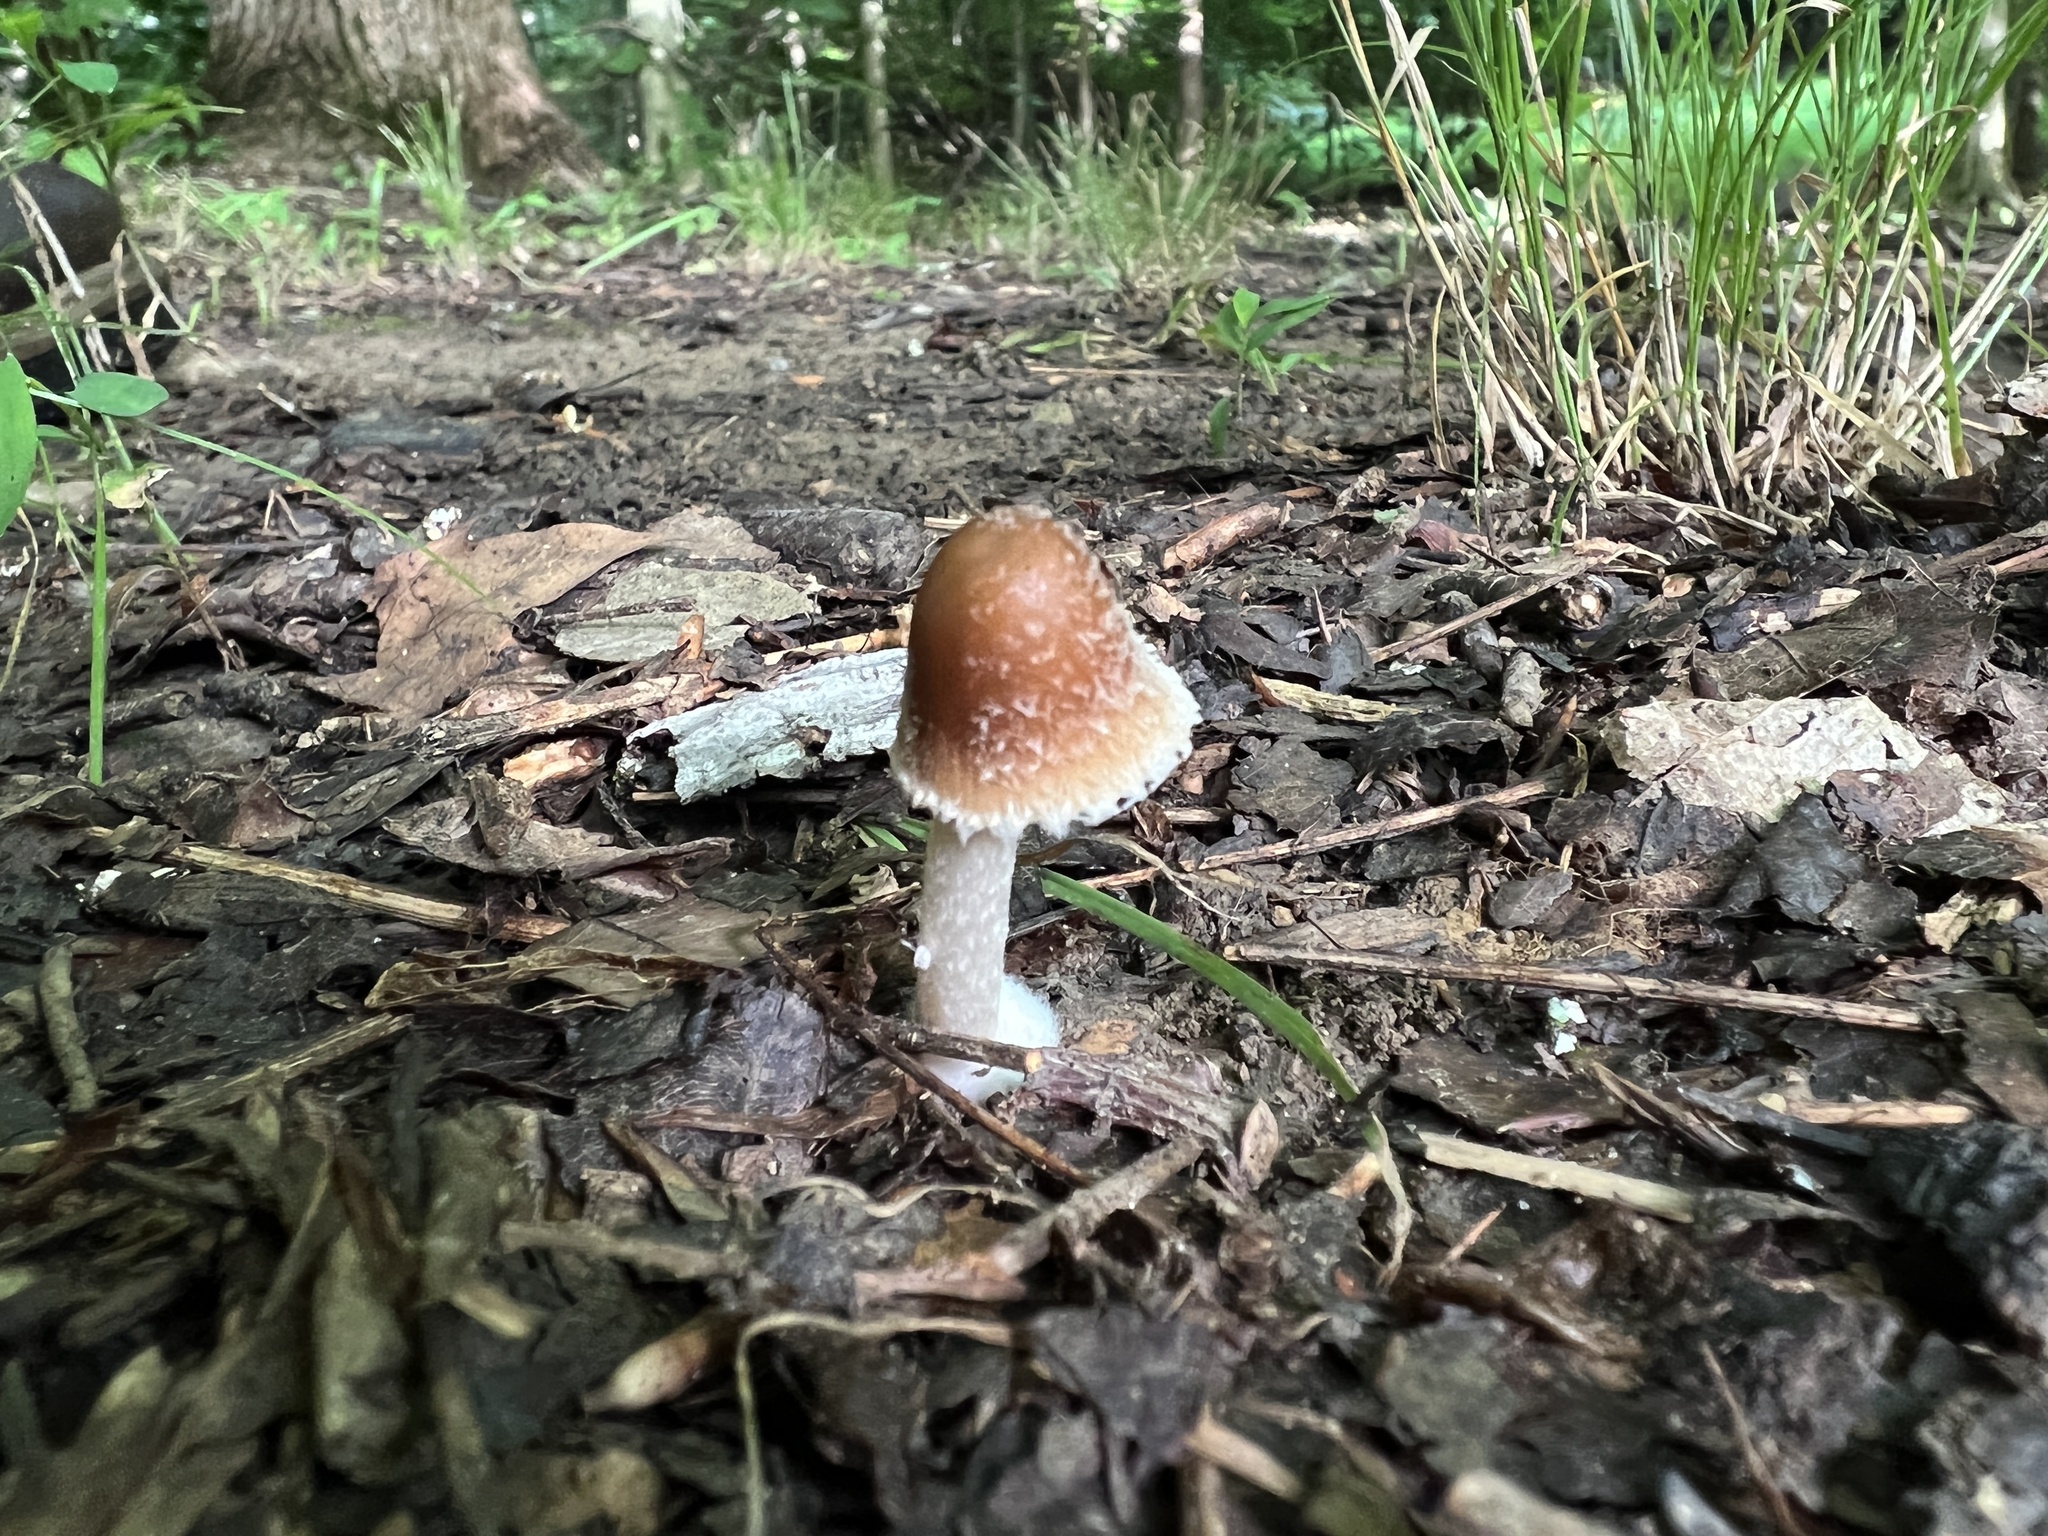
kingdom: Fungi
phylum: Basidiomycota
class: Agaricomycetes
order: Agaricales
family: Psathyrellaceae
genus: Candolleomyces
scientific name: Candolleomyces candolleanus
